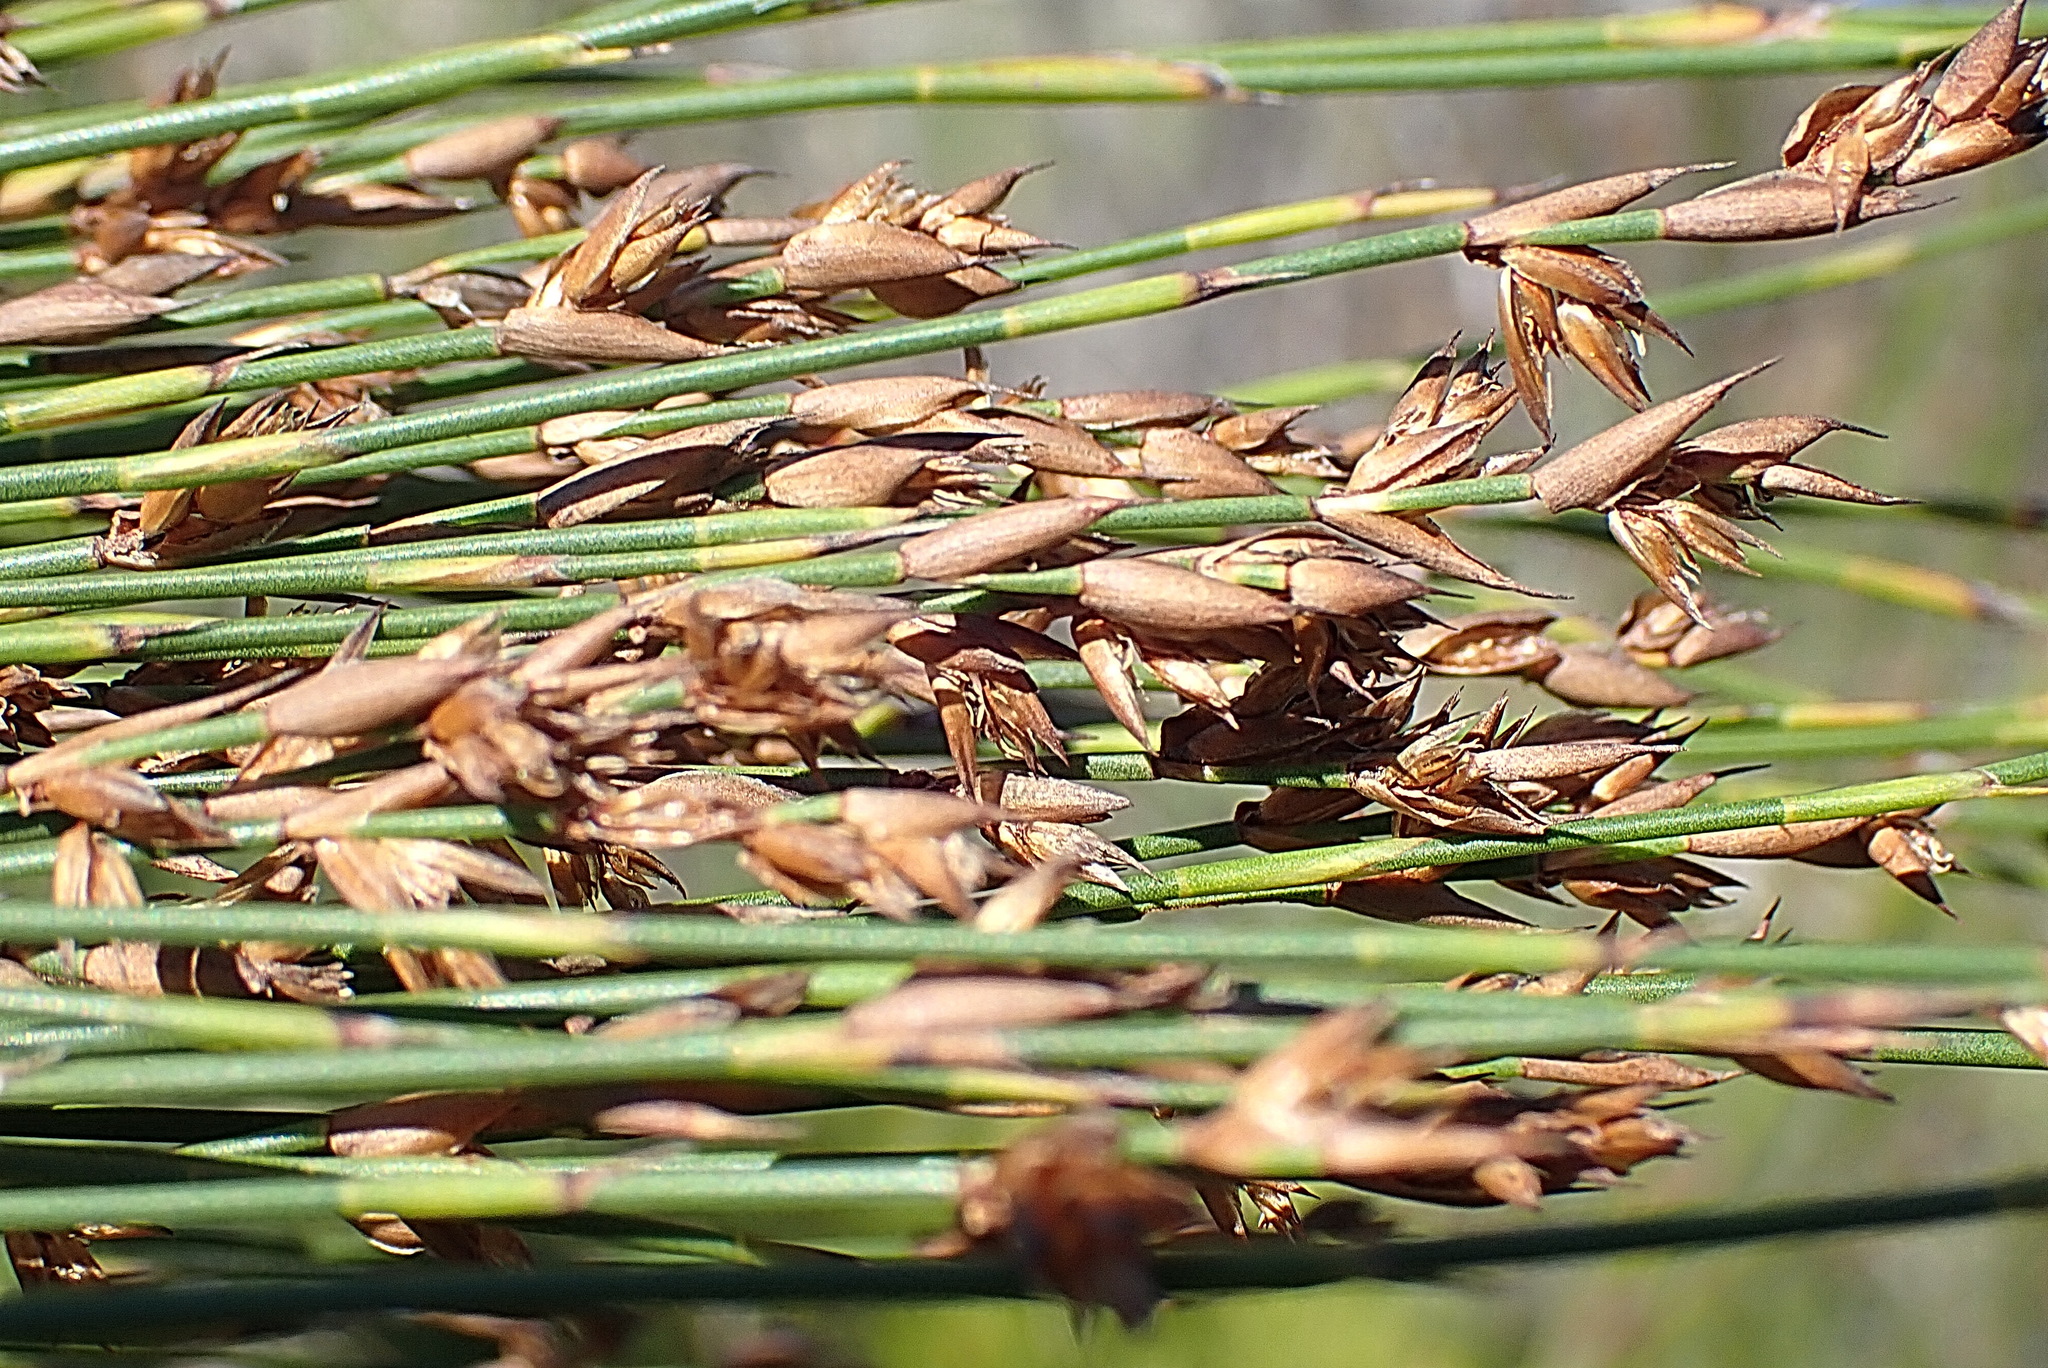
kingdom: Plantae
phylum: Tracheophyta
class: Liliopsida
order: Poales
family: Restionaceae
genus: Platycaulos
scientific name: Platycaulos compressus
